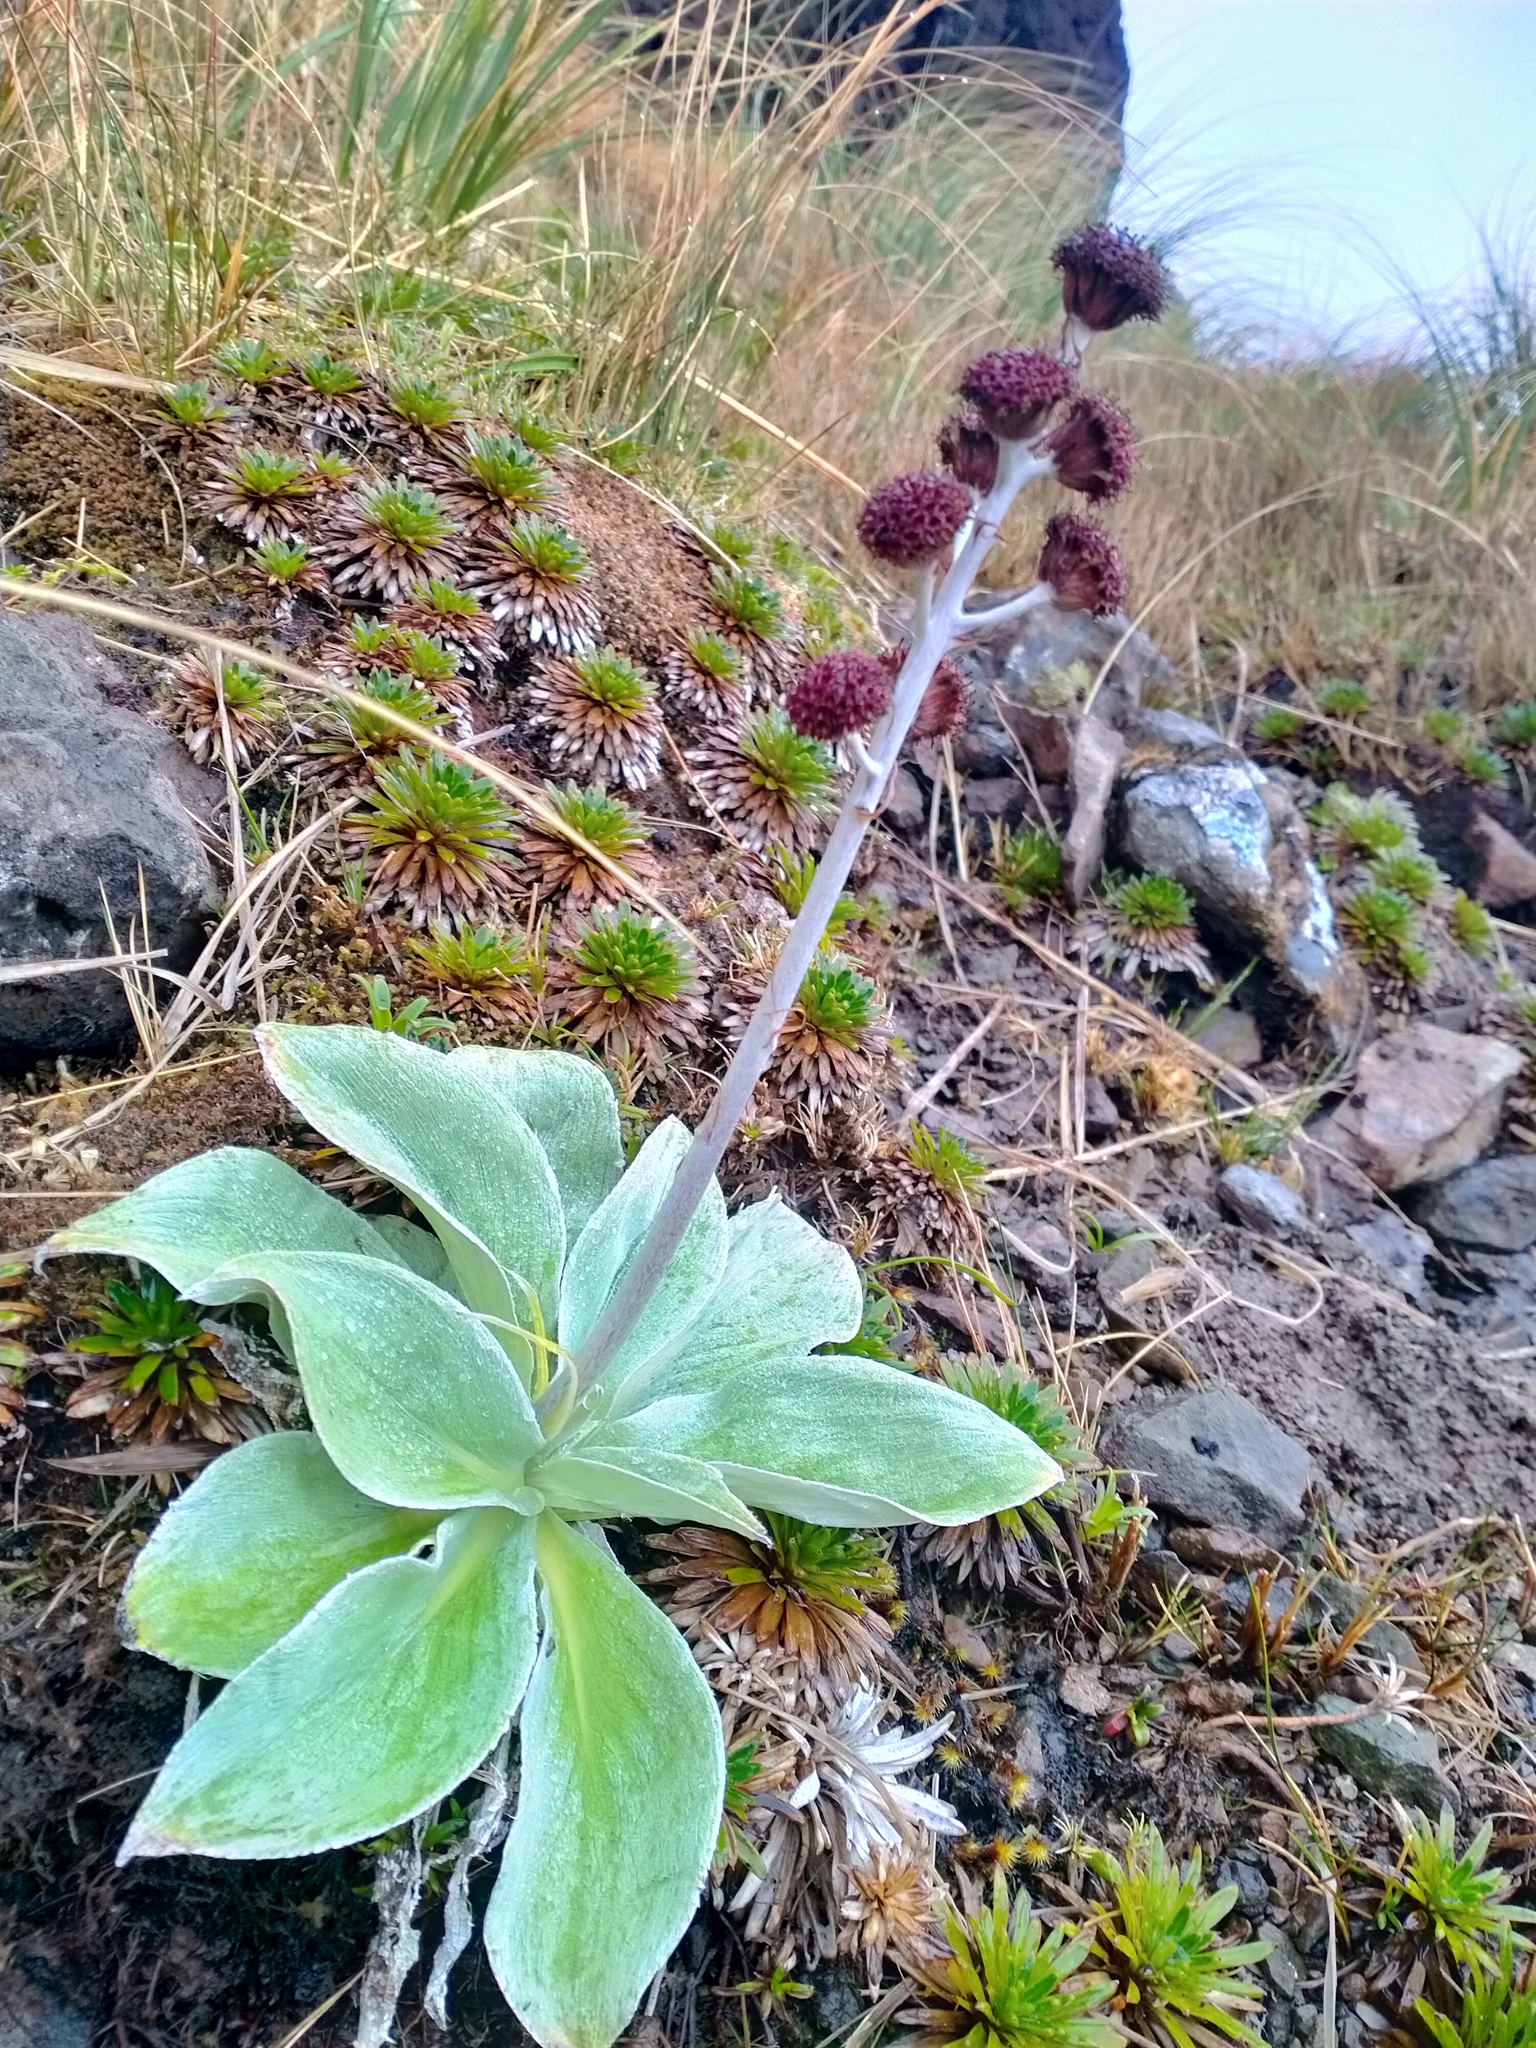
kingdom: Plantae
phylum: Tracheophyta
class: Magnoliopsida
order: Asterales
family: Asteraceae
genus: Pleurophyllum
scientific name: Pleurophyllum hookeri
